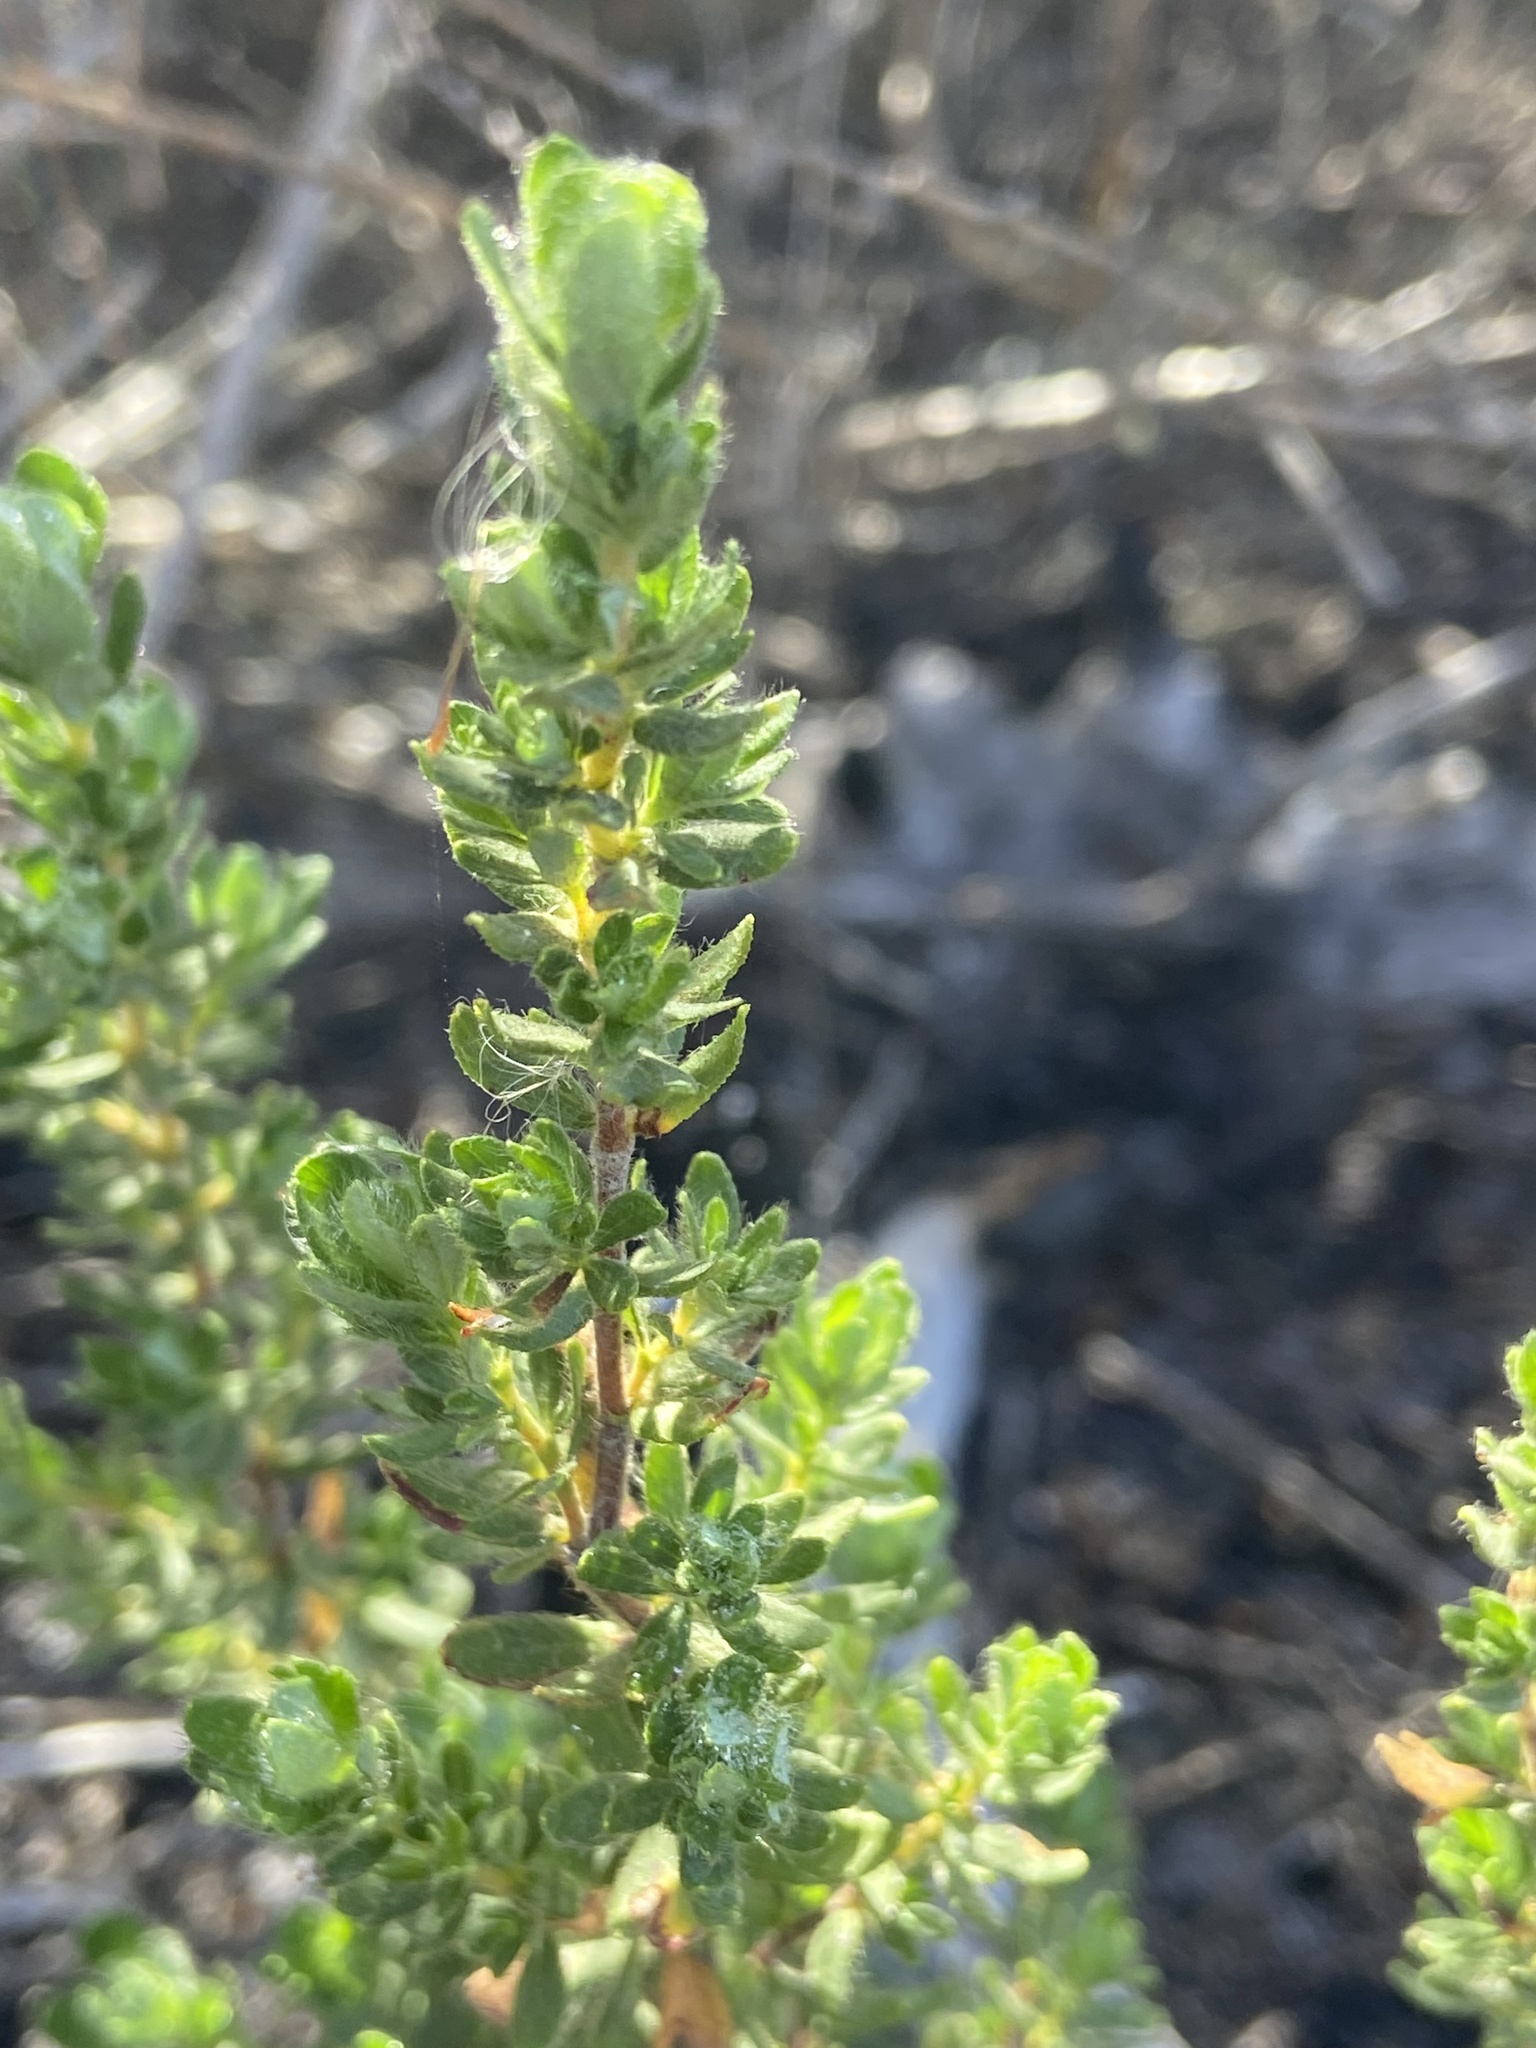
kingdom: Plantae
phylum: Tracheophyta
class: Magnoliopsida
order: Rosales
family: Rosaceae
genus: Cliffortia
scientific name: Cliffortia polygonifolia
